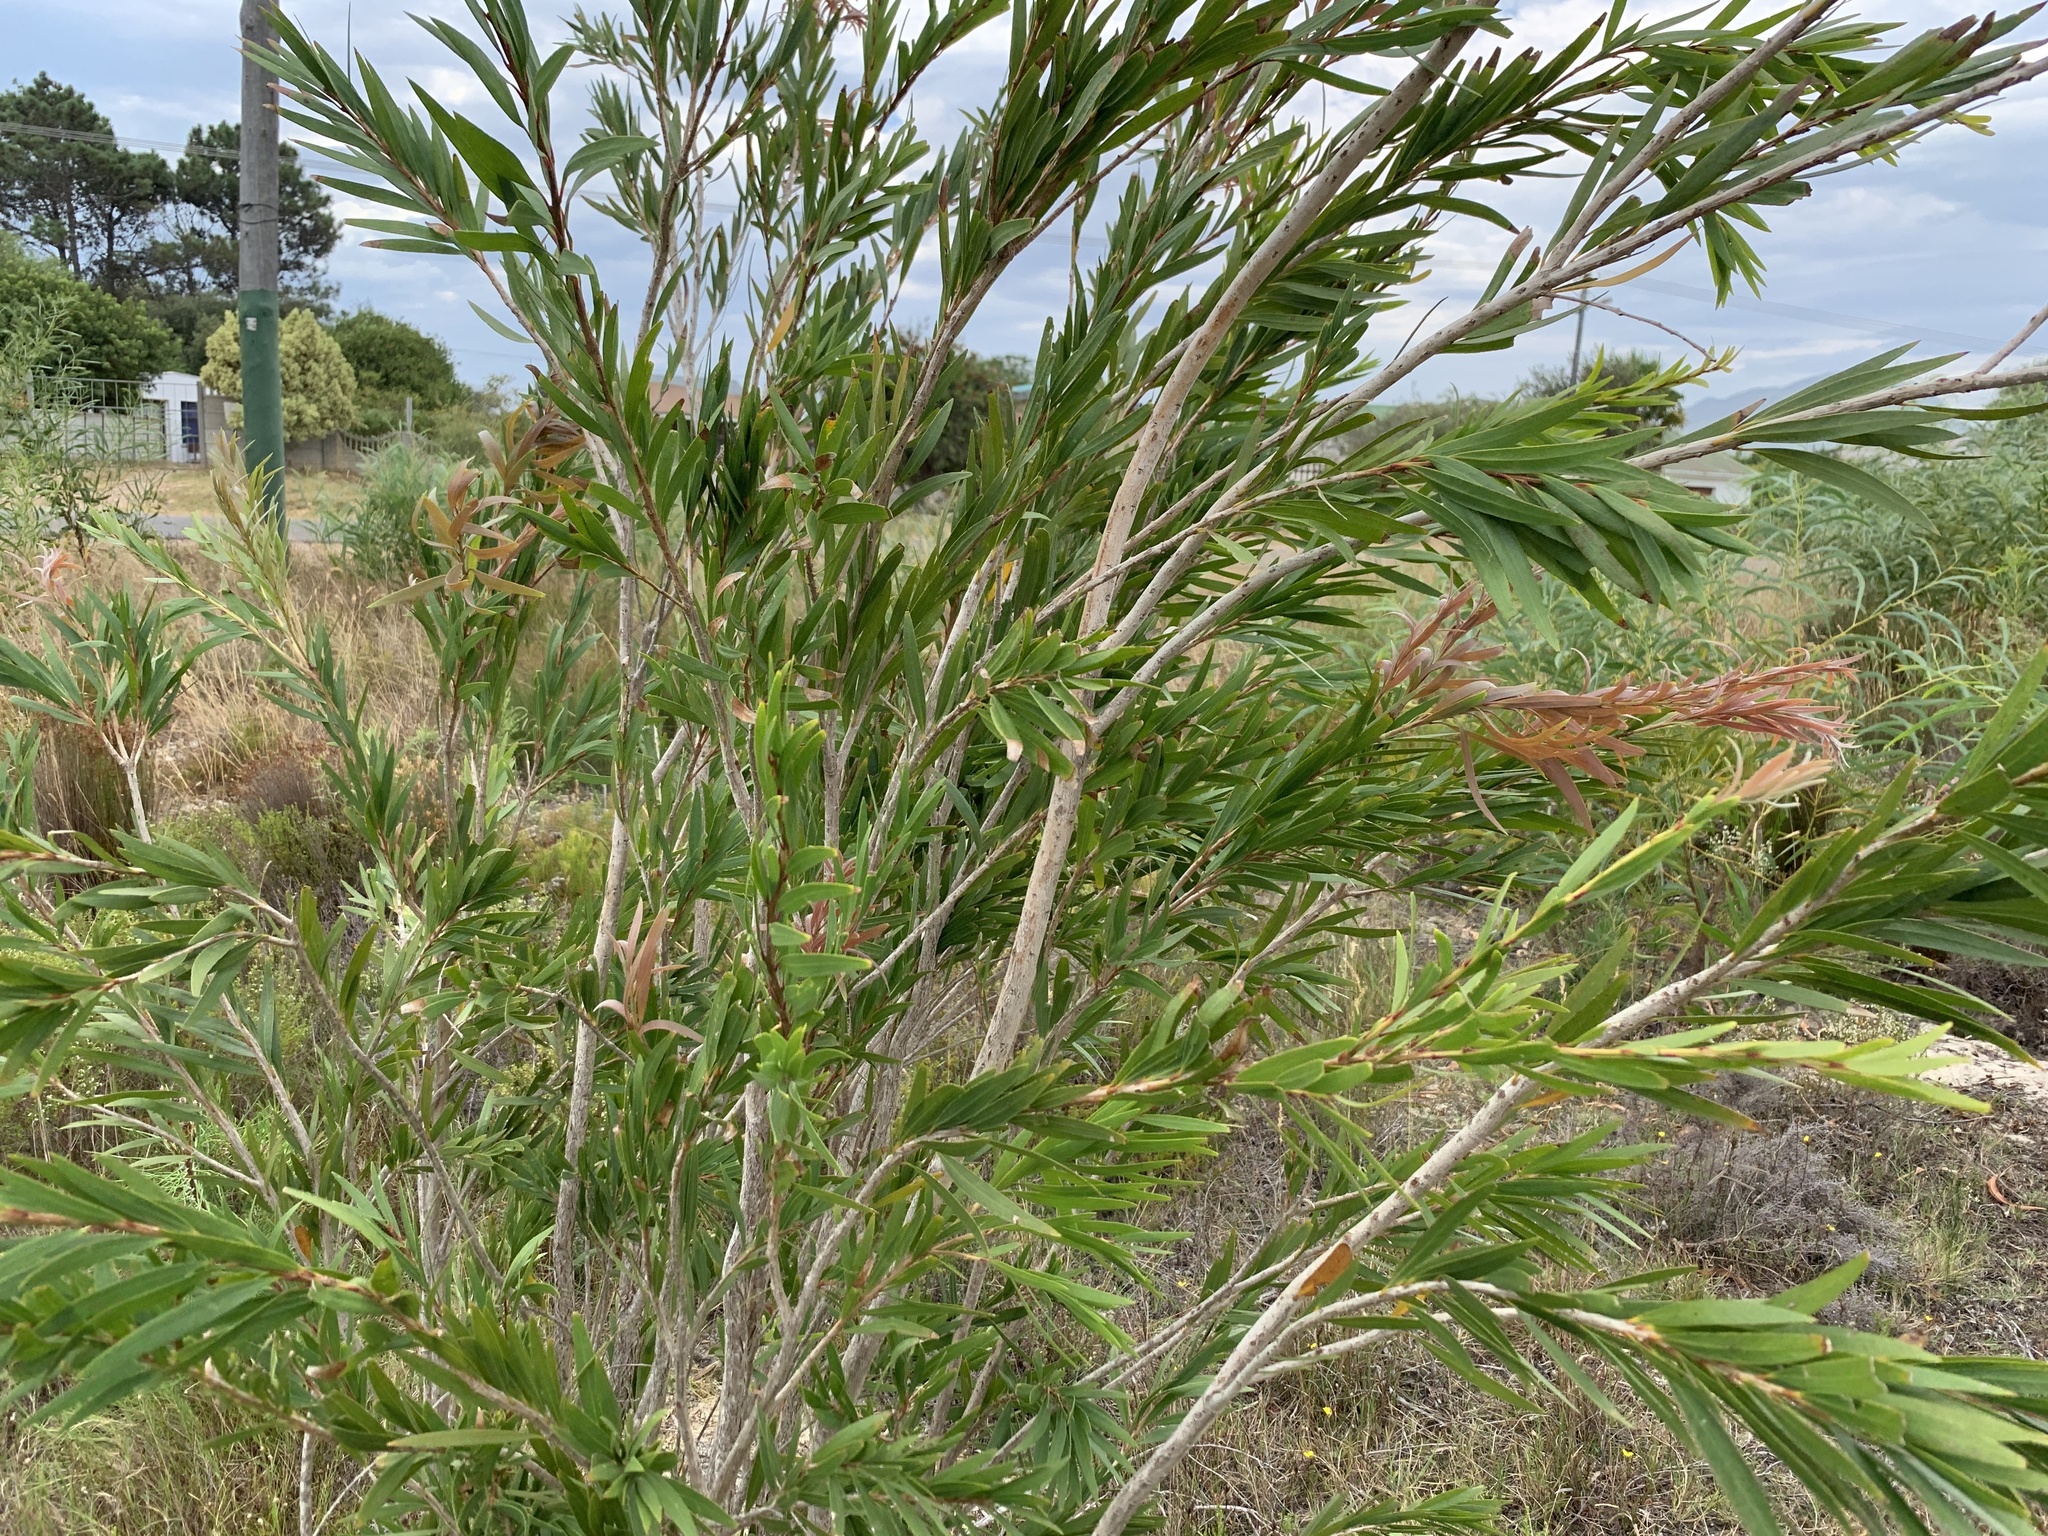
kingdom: Plantae
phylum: Tracheophyta
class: Magnoliopsida
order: Myrtales
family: Myrtaceae
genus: Callistemon
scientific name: Callistemon viminalis
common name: Drooping bottlebrush
